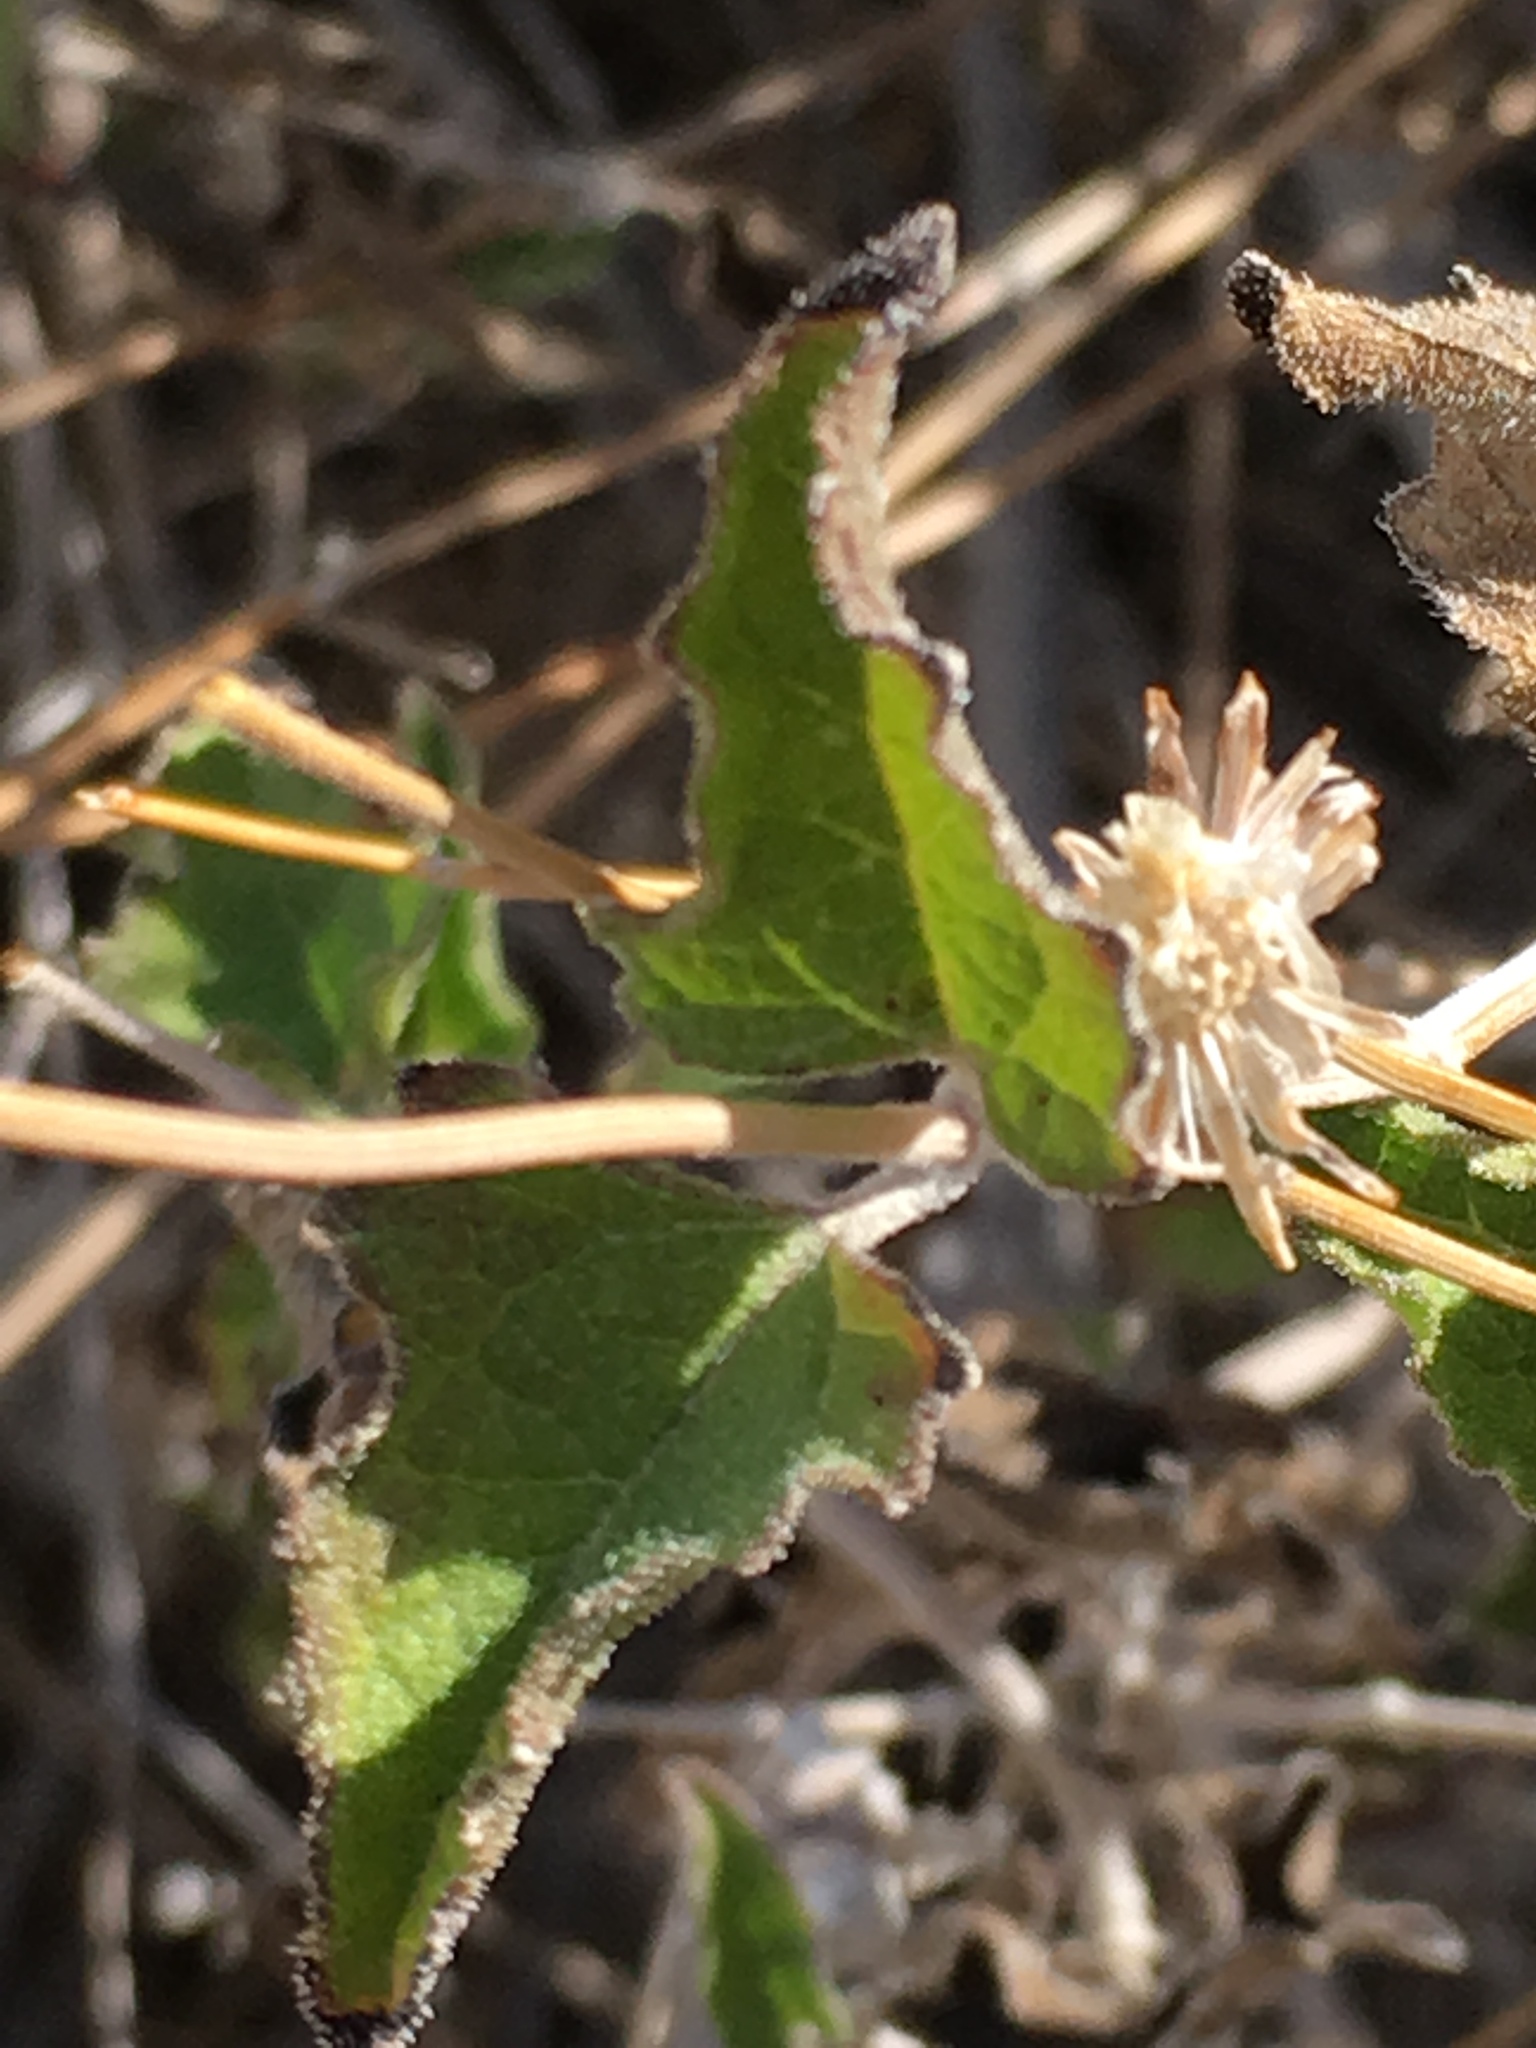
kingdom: Plantae
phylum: Tracheophyta
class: Magnoliopsida
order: Asterales
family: Asteraceae
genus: Bahiopsis
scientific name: Bahiopsis parishii
